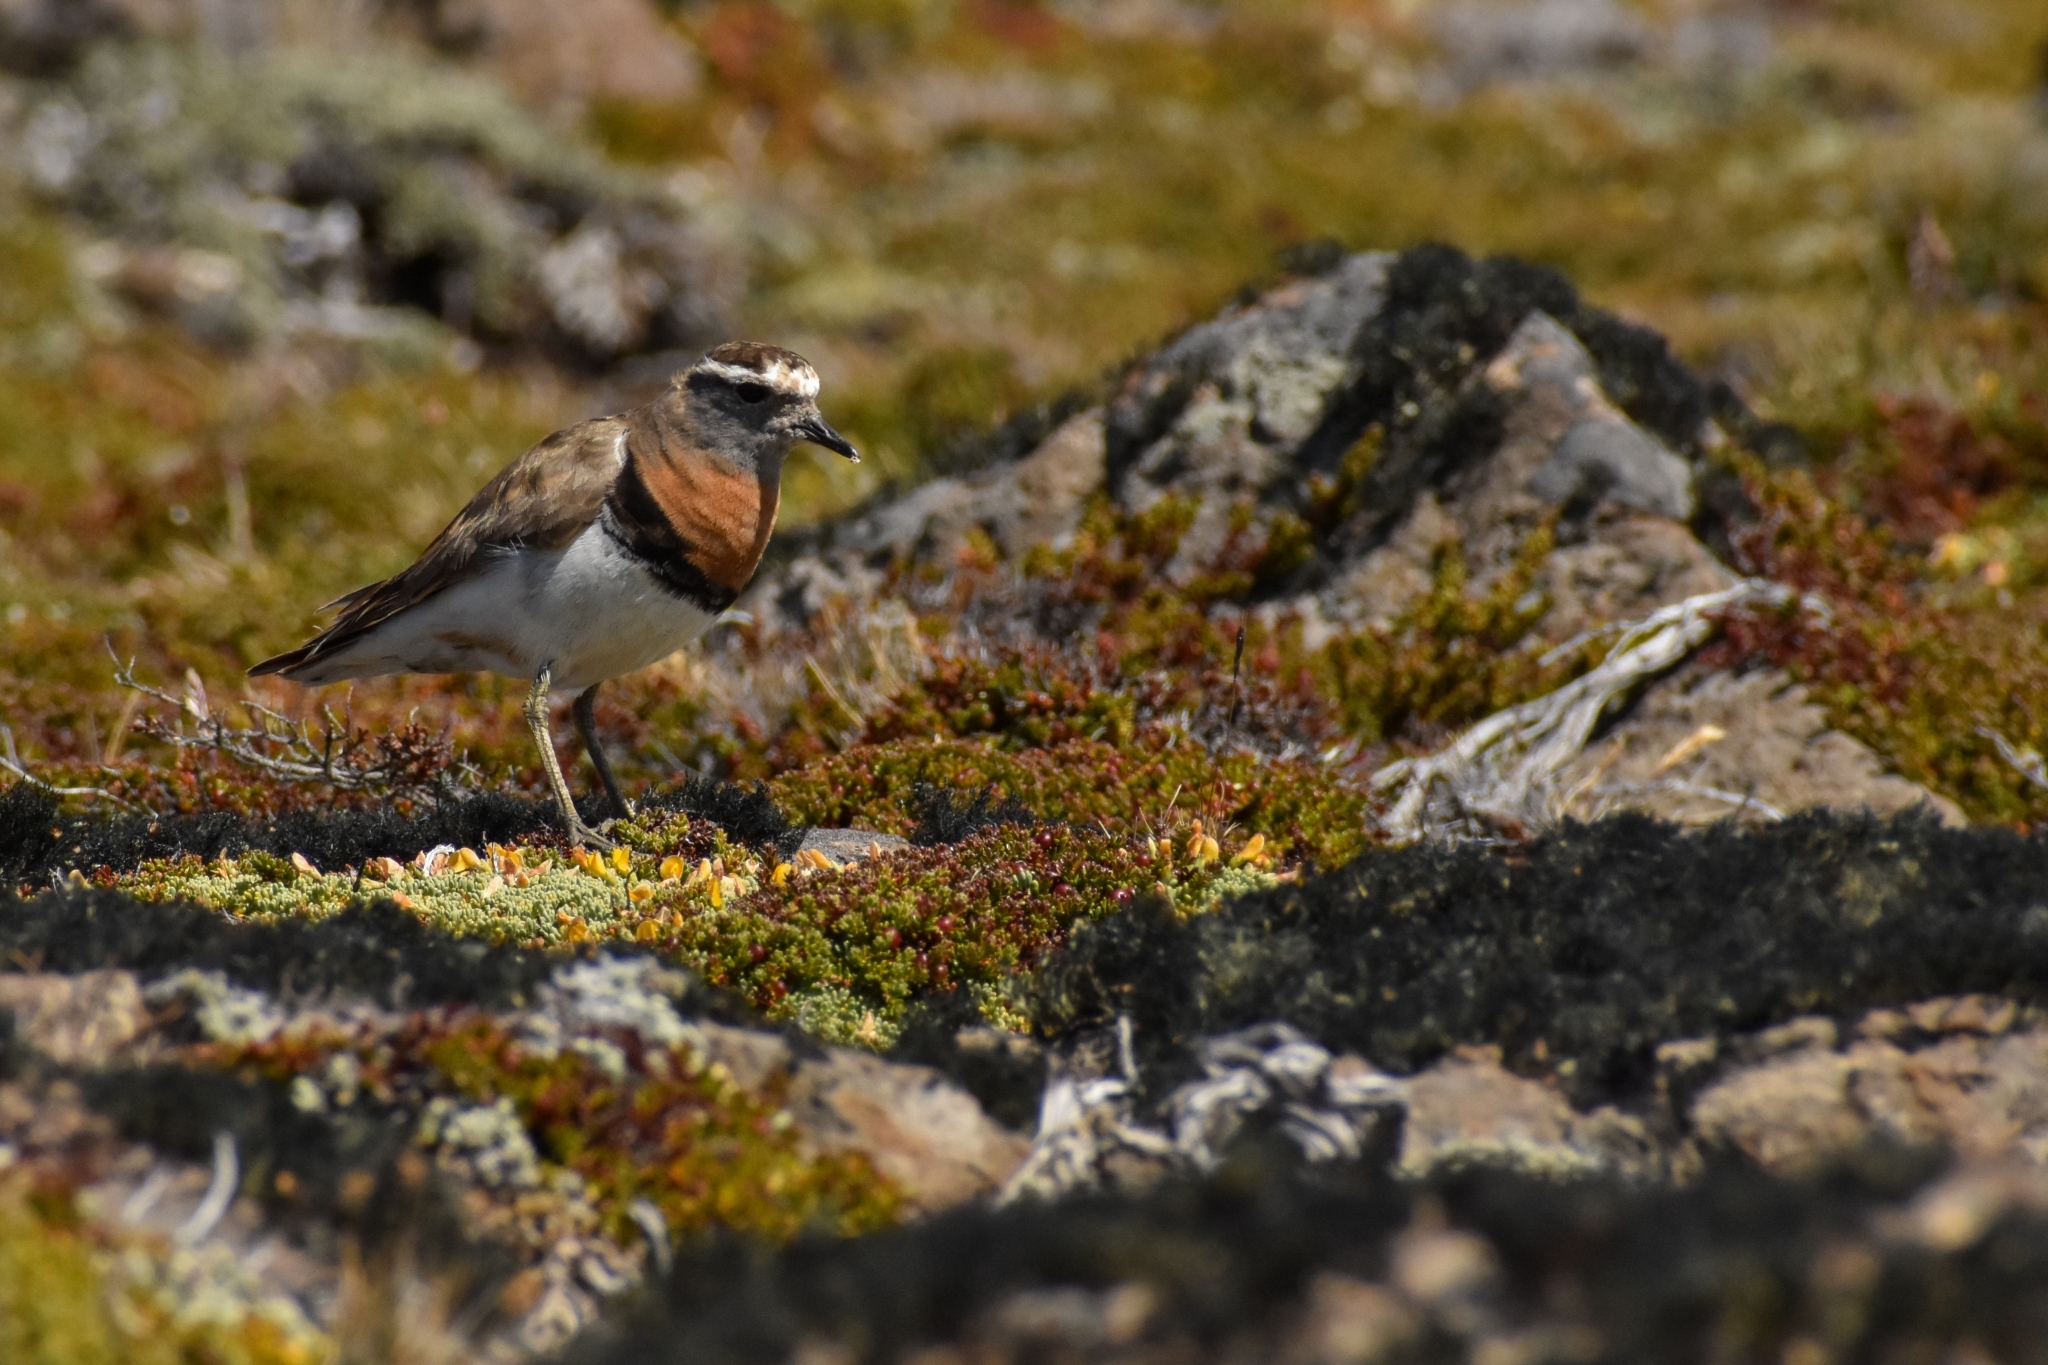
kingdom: Animalia
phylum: Chordata
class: Aves
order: Charadriiformes
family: Charadriidae
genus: Charadrius
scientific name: Charadrius modestus
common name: Rufous-chested plover
